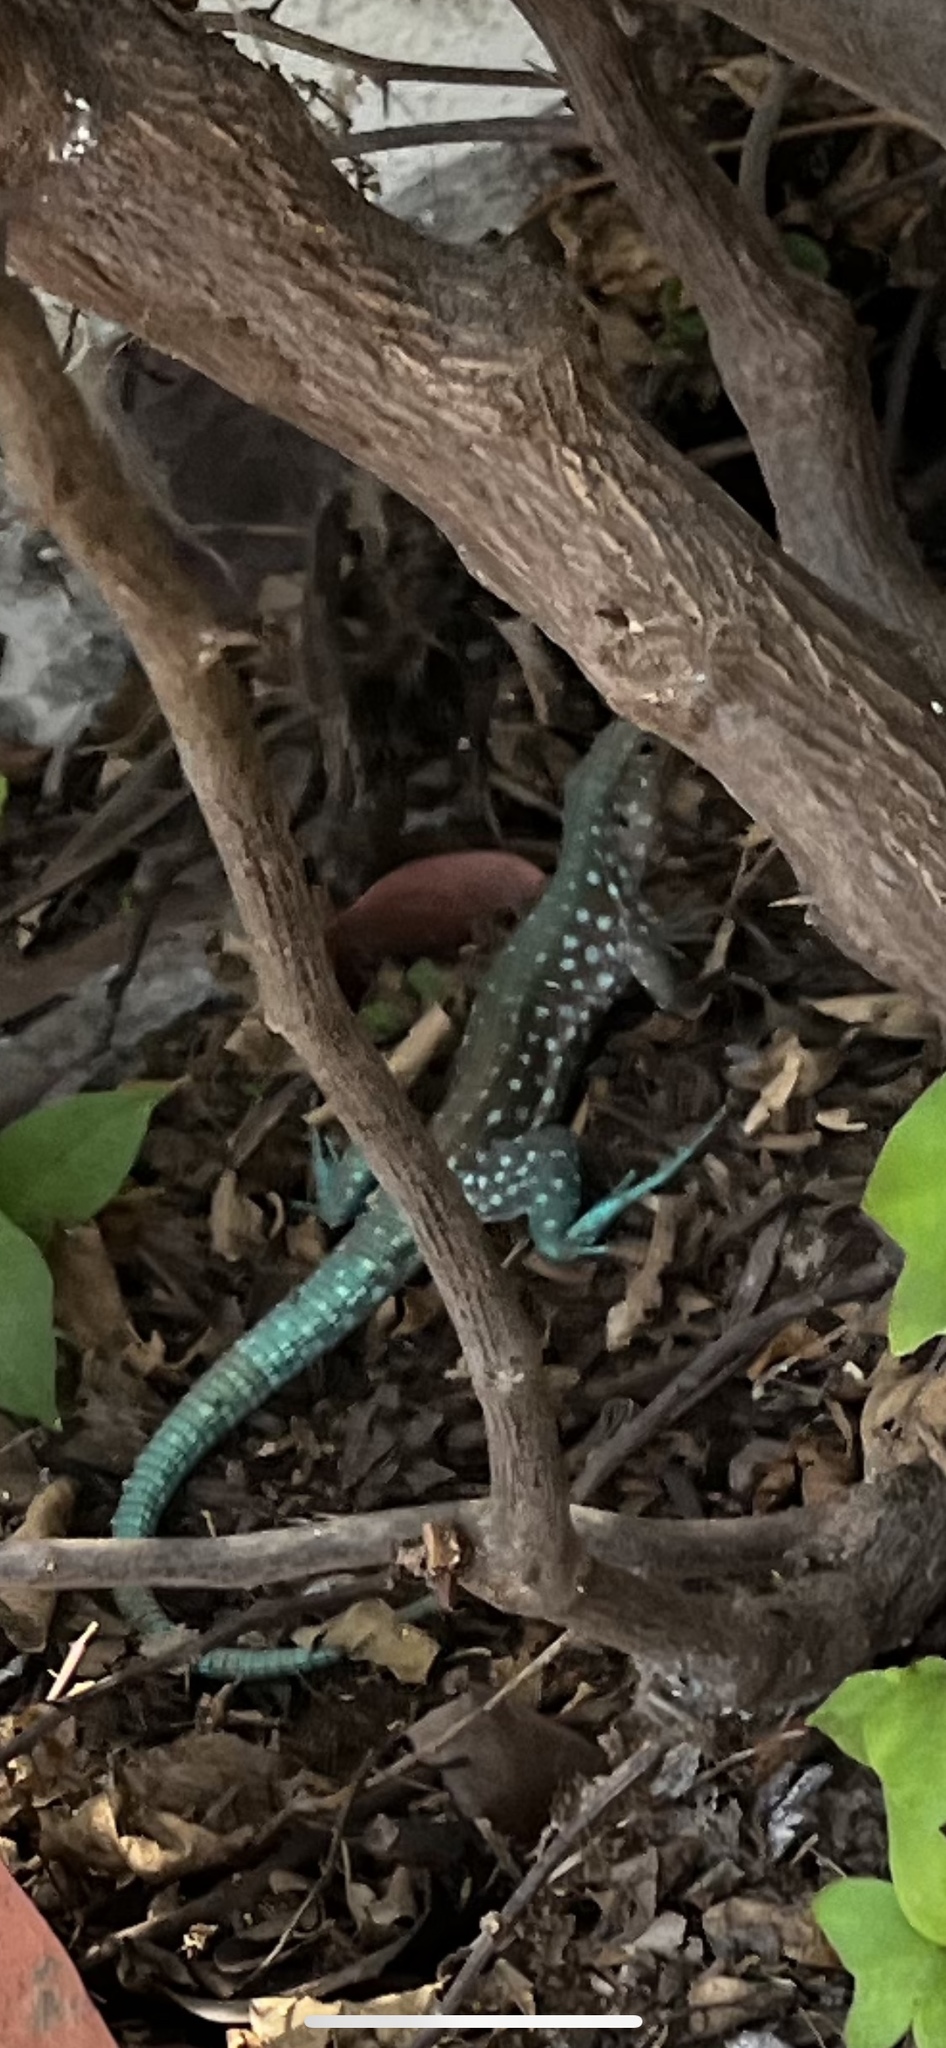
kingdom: Animalia
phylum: Chordata
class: Squamata
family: Teiidae
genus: Cnemidophorus
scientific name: Cnemidophorus arubensis
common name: Aruba whiptail
